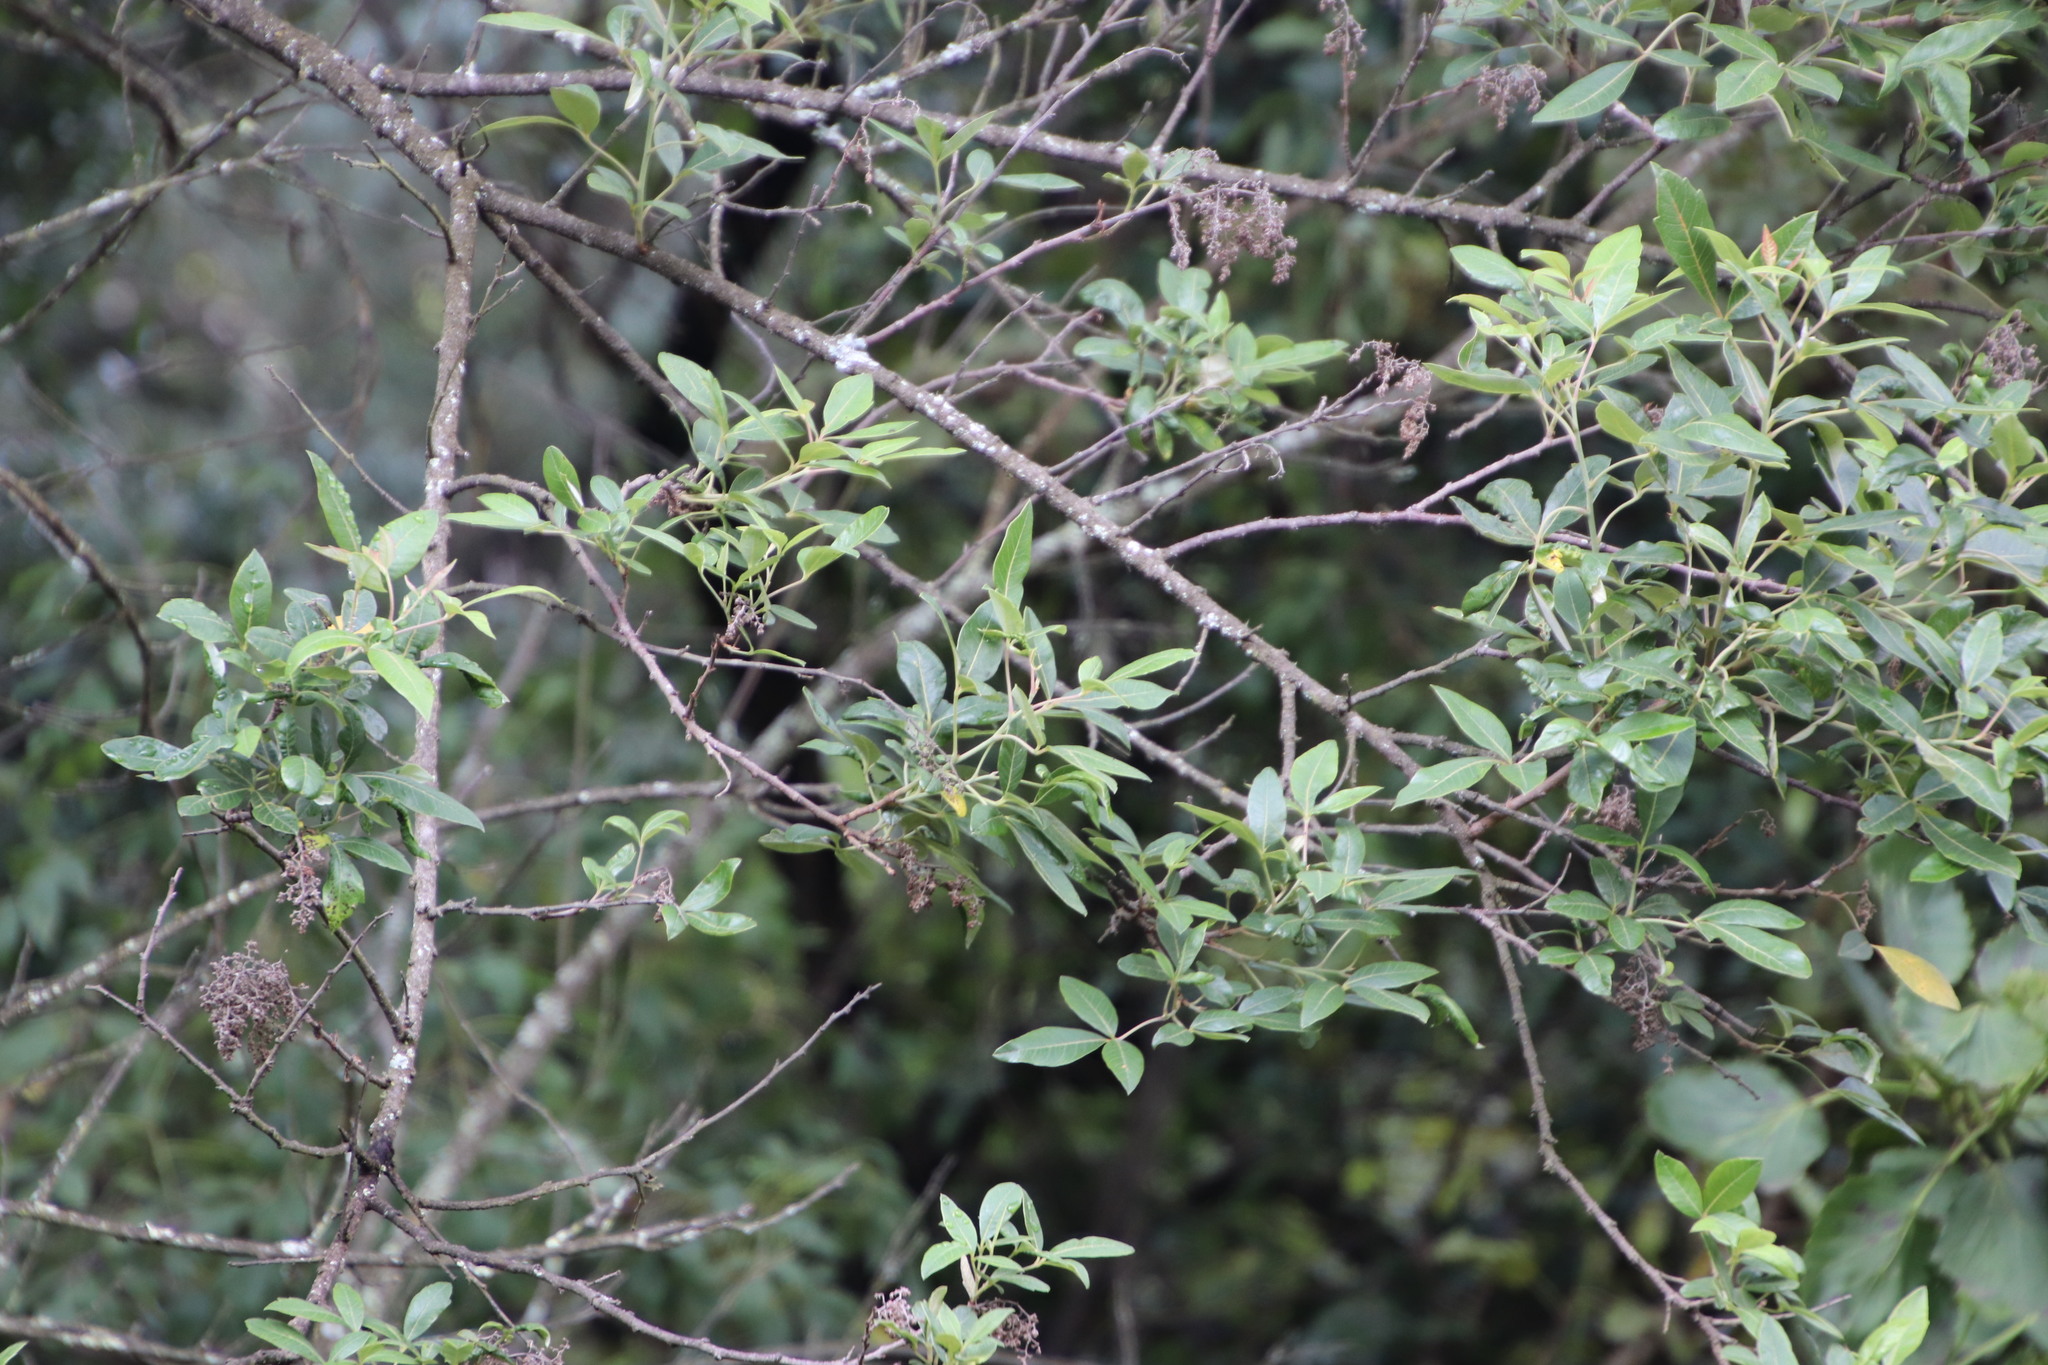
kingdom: Plantae
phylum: Tracheophyta
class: Magnoliopsida
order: Sapindales
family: Anacardiaceae
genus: Searsia
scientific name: Searsia tomentosa
